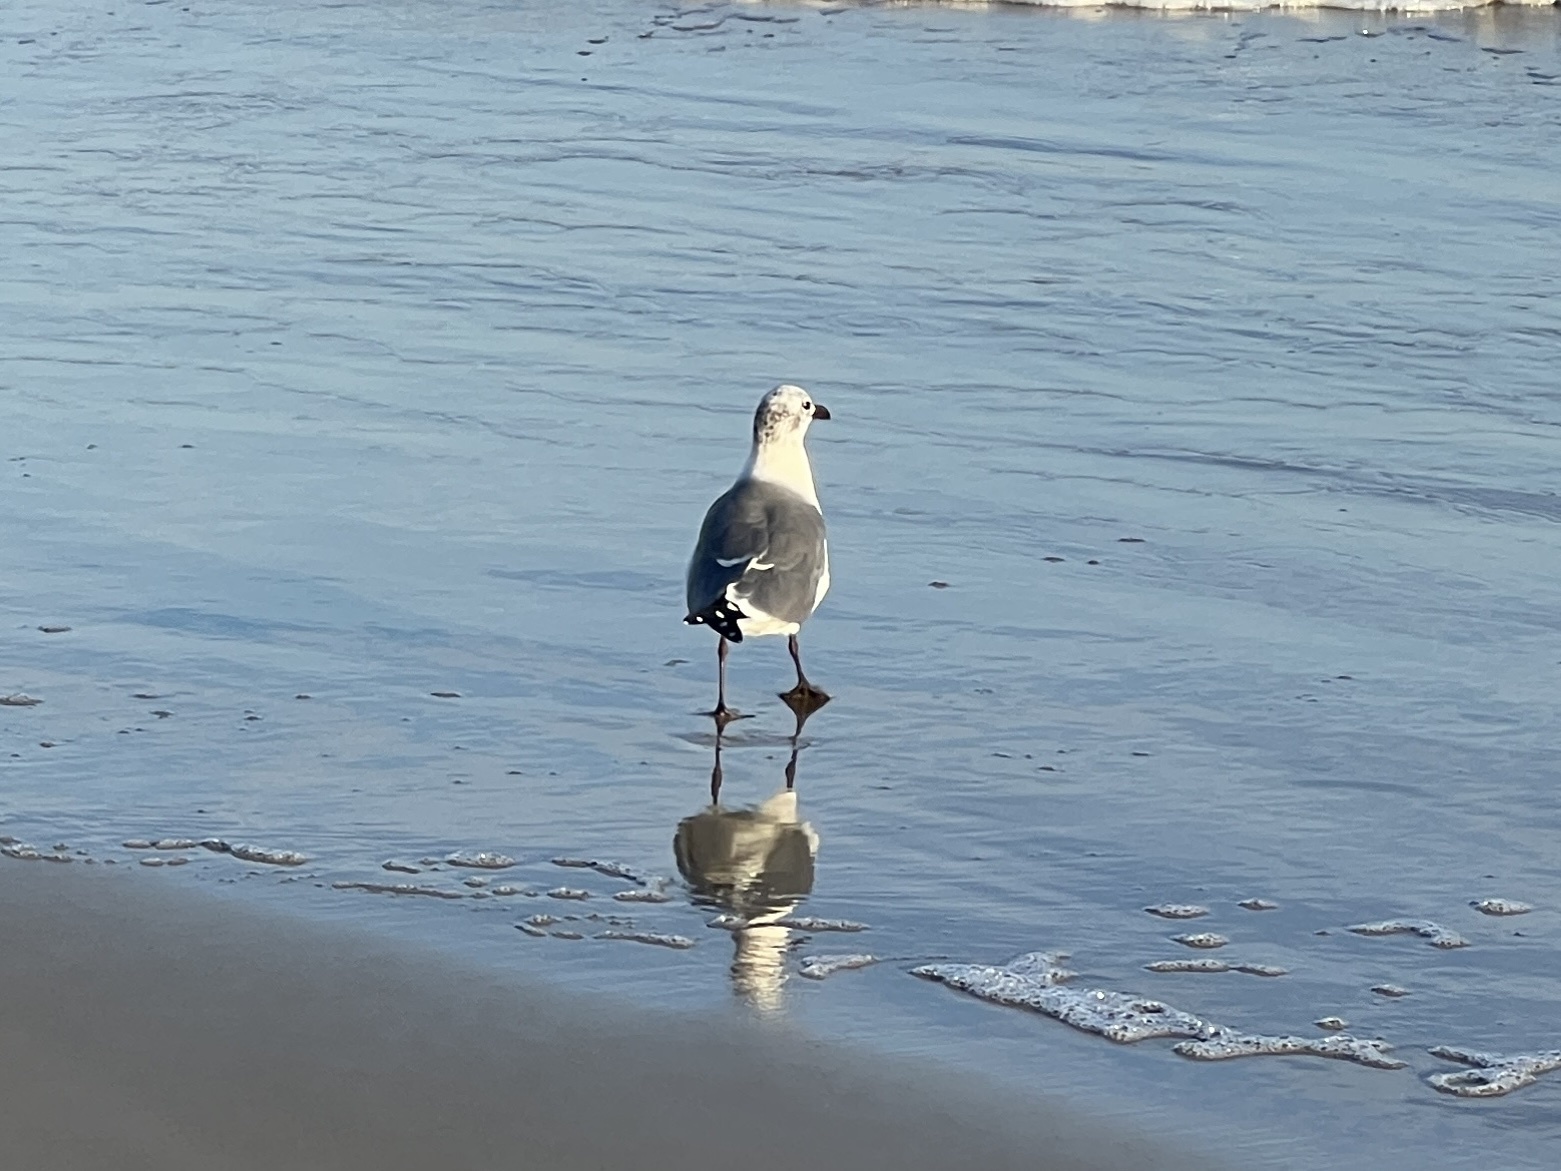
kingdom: Animalia
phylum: Chordata
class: Aves
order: Charadriiformes
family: Laridae
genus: Leucophaeus
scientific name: Leucophaeus atricilla
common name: Laughing gull
